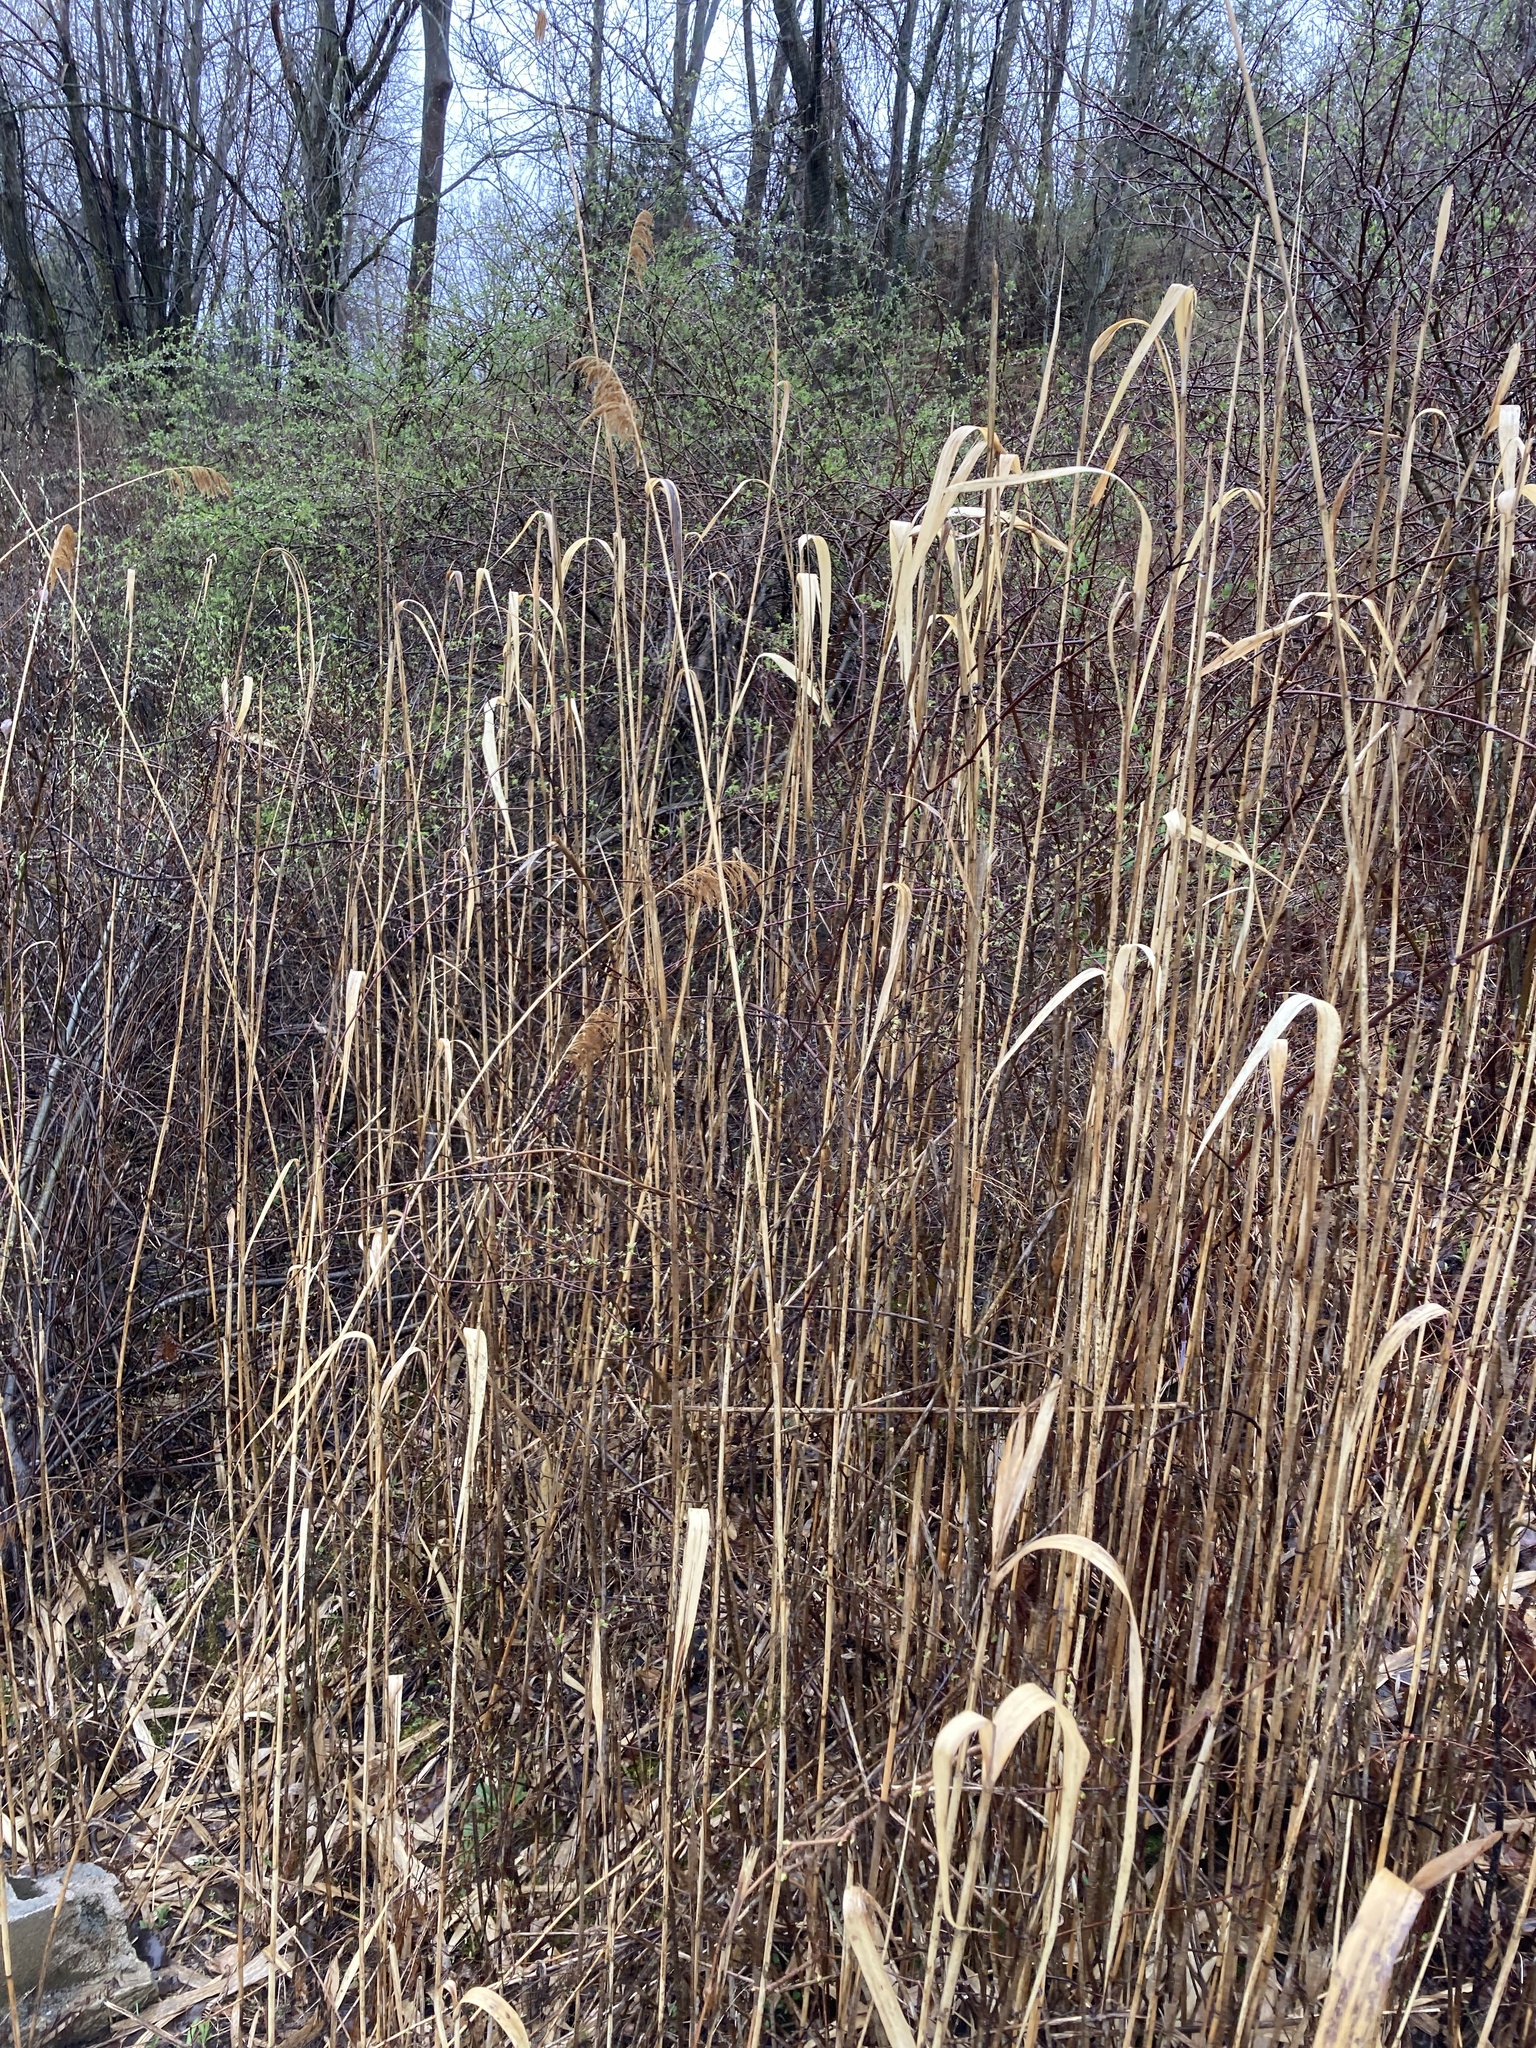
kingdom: Plantae
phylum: Tracheophyta
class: Liliopsida
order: Poales
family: Poaceae
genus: Phragmites
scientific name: Phragmites australis
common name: Common reed
